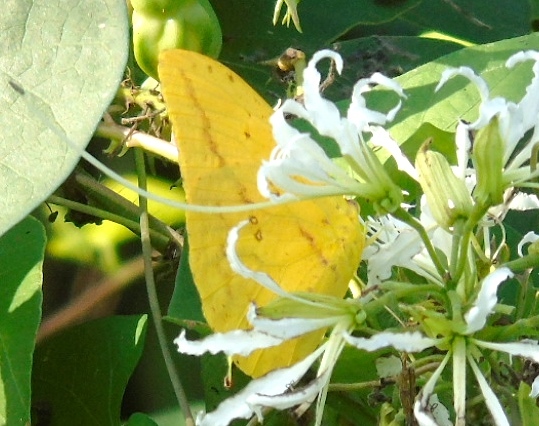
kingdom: Animalia
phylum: Arthropoda
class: Insecta
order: Lepidoptera
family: Pieridae
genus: Phoebis
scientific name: Phoebis agarithe
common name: Large orange sulphur
